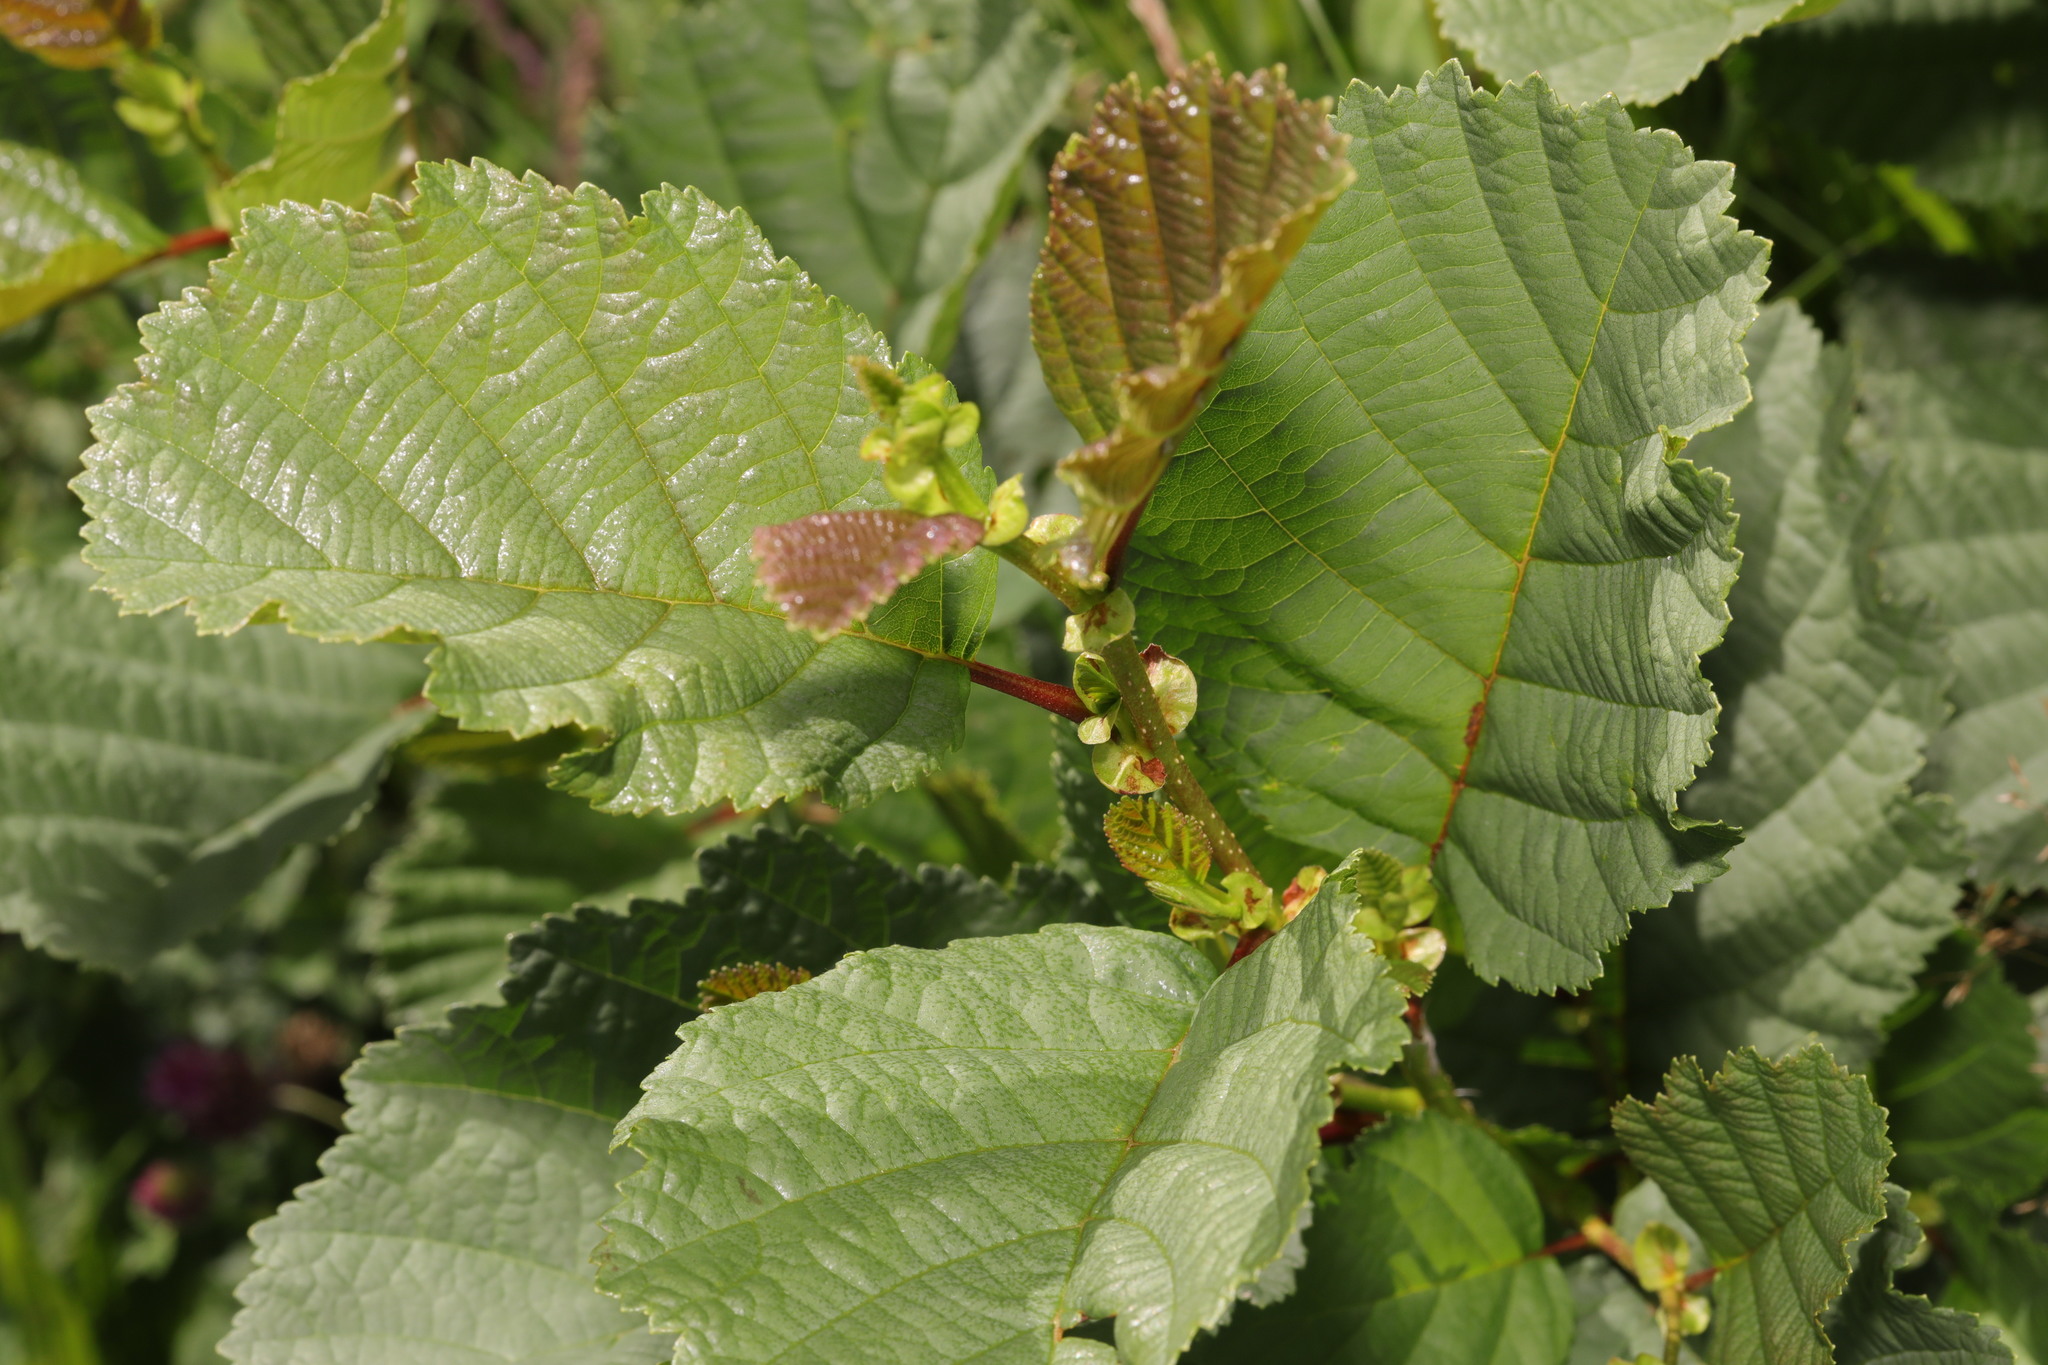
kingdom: Plantae
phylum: Tracheophyta
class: Magnoliopsida
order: Fagales
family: Betulaceae
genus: Alnus
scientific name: Alnus glutinosa
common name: Black alder
